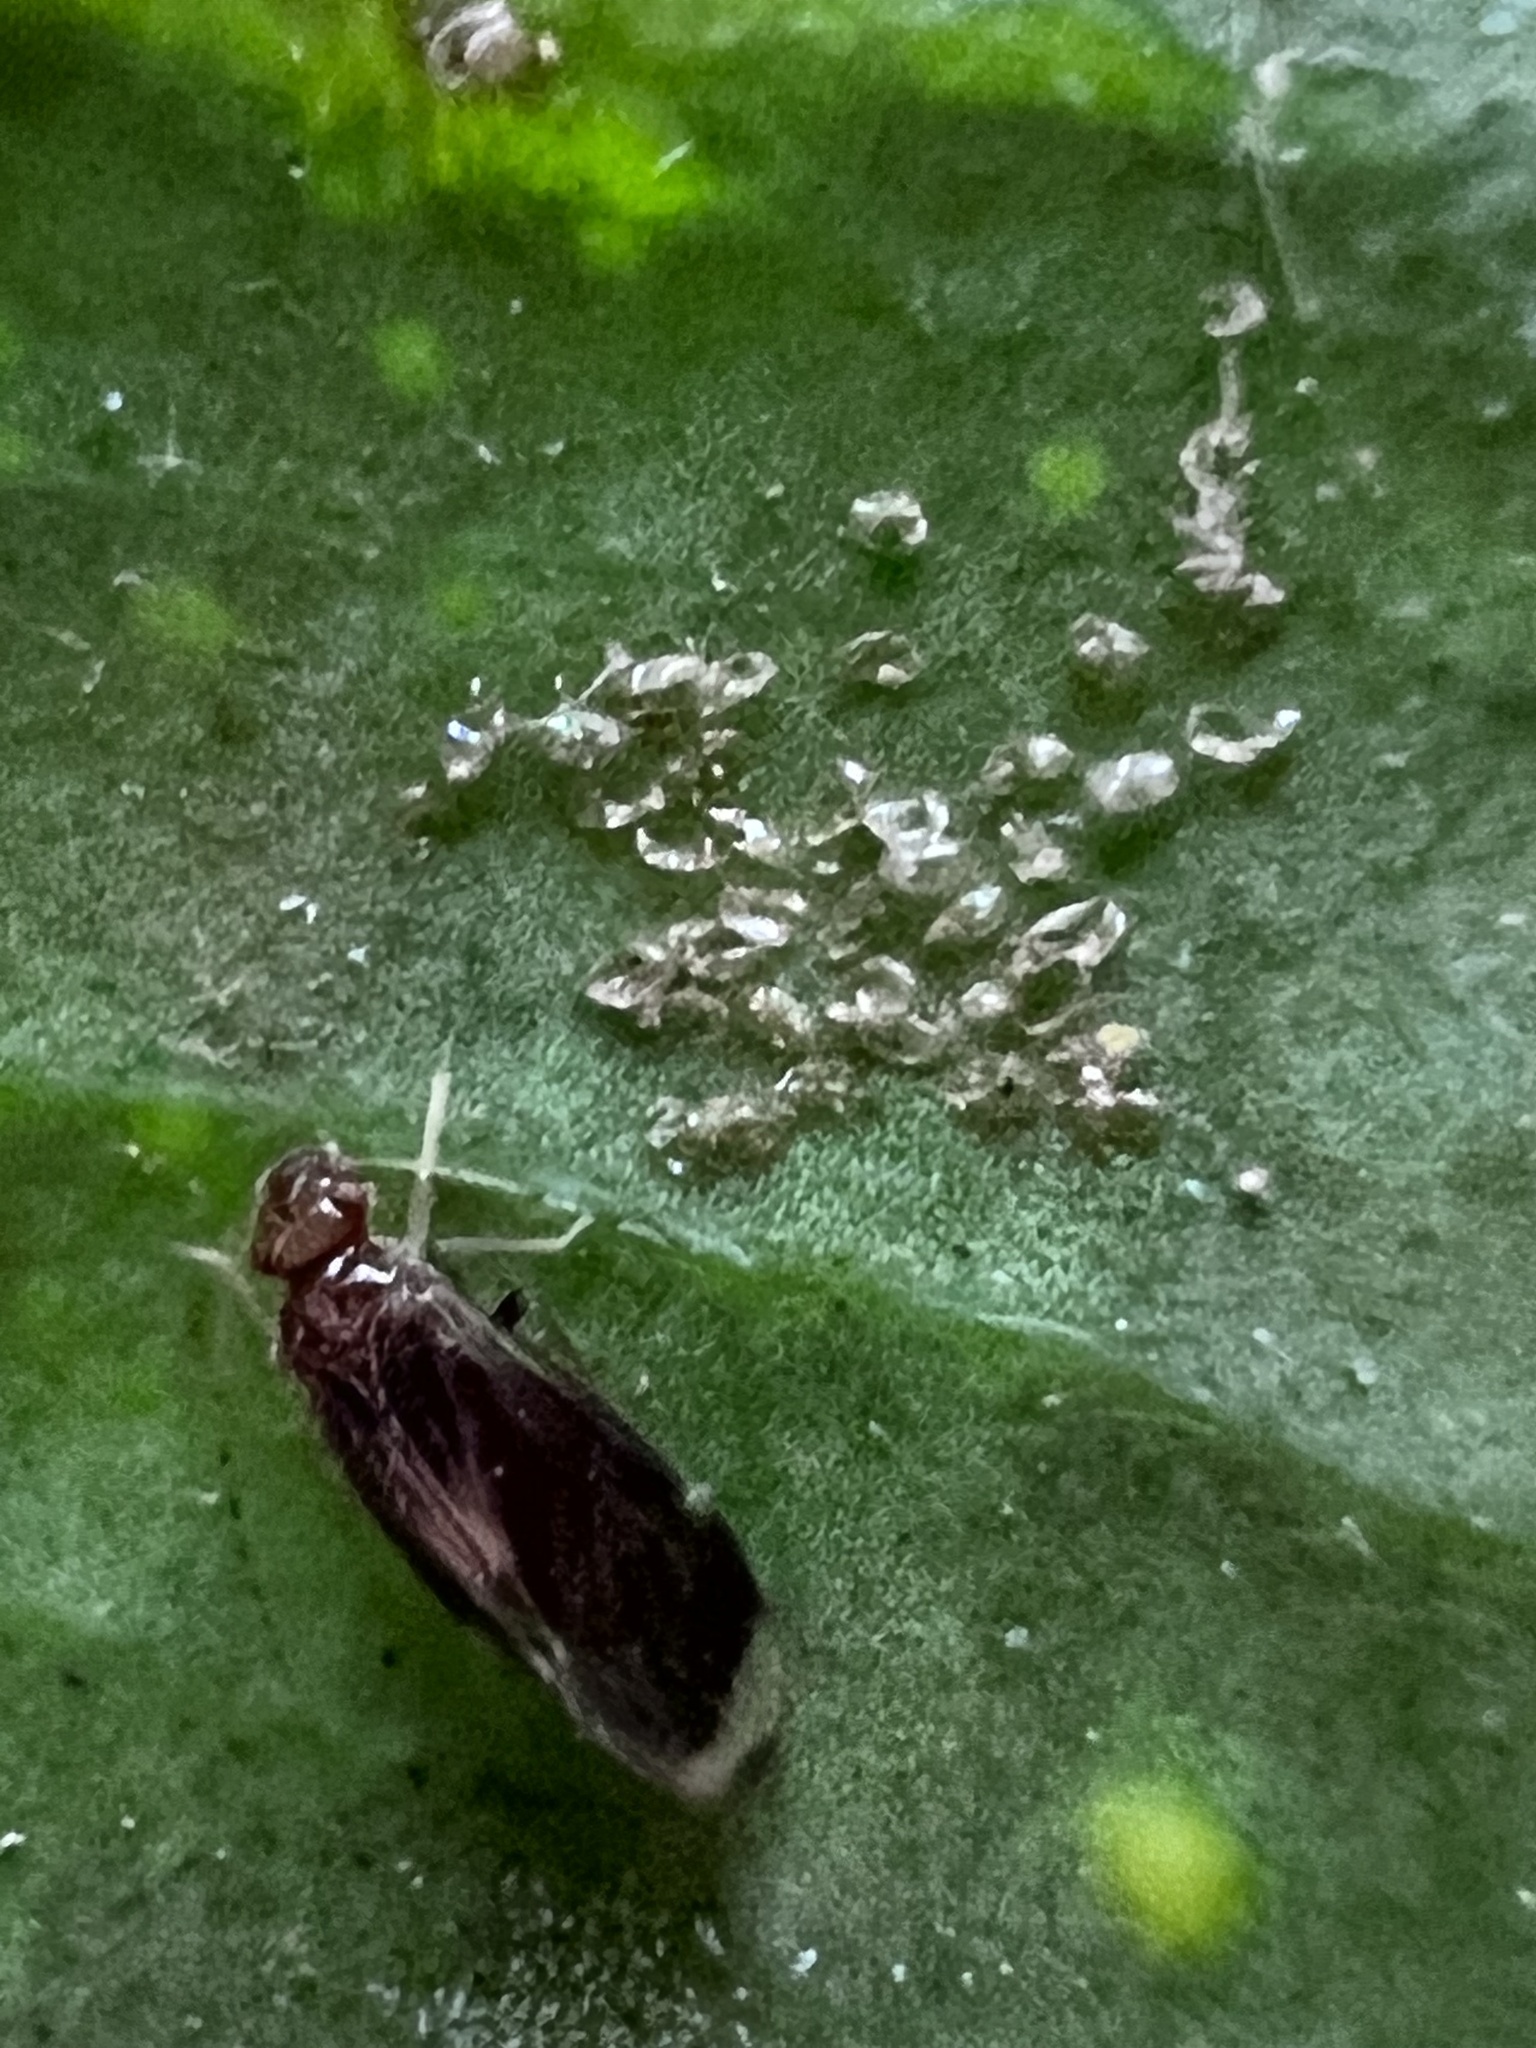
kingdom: Animalia
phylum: Arthropoda
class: Insecta
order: Psocodea
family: Amphipsocidae
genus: Polypsocus
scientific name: Polypsocus corruptus
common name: Corrupt barklouse
